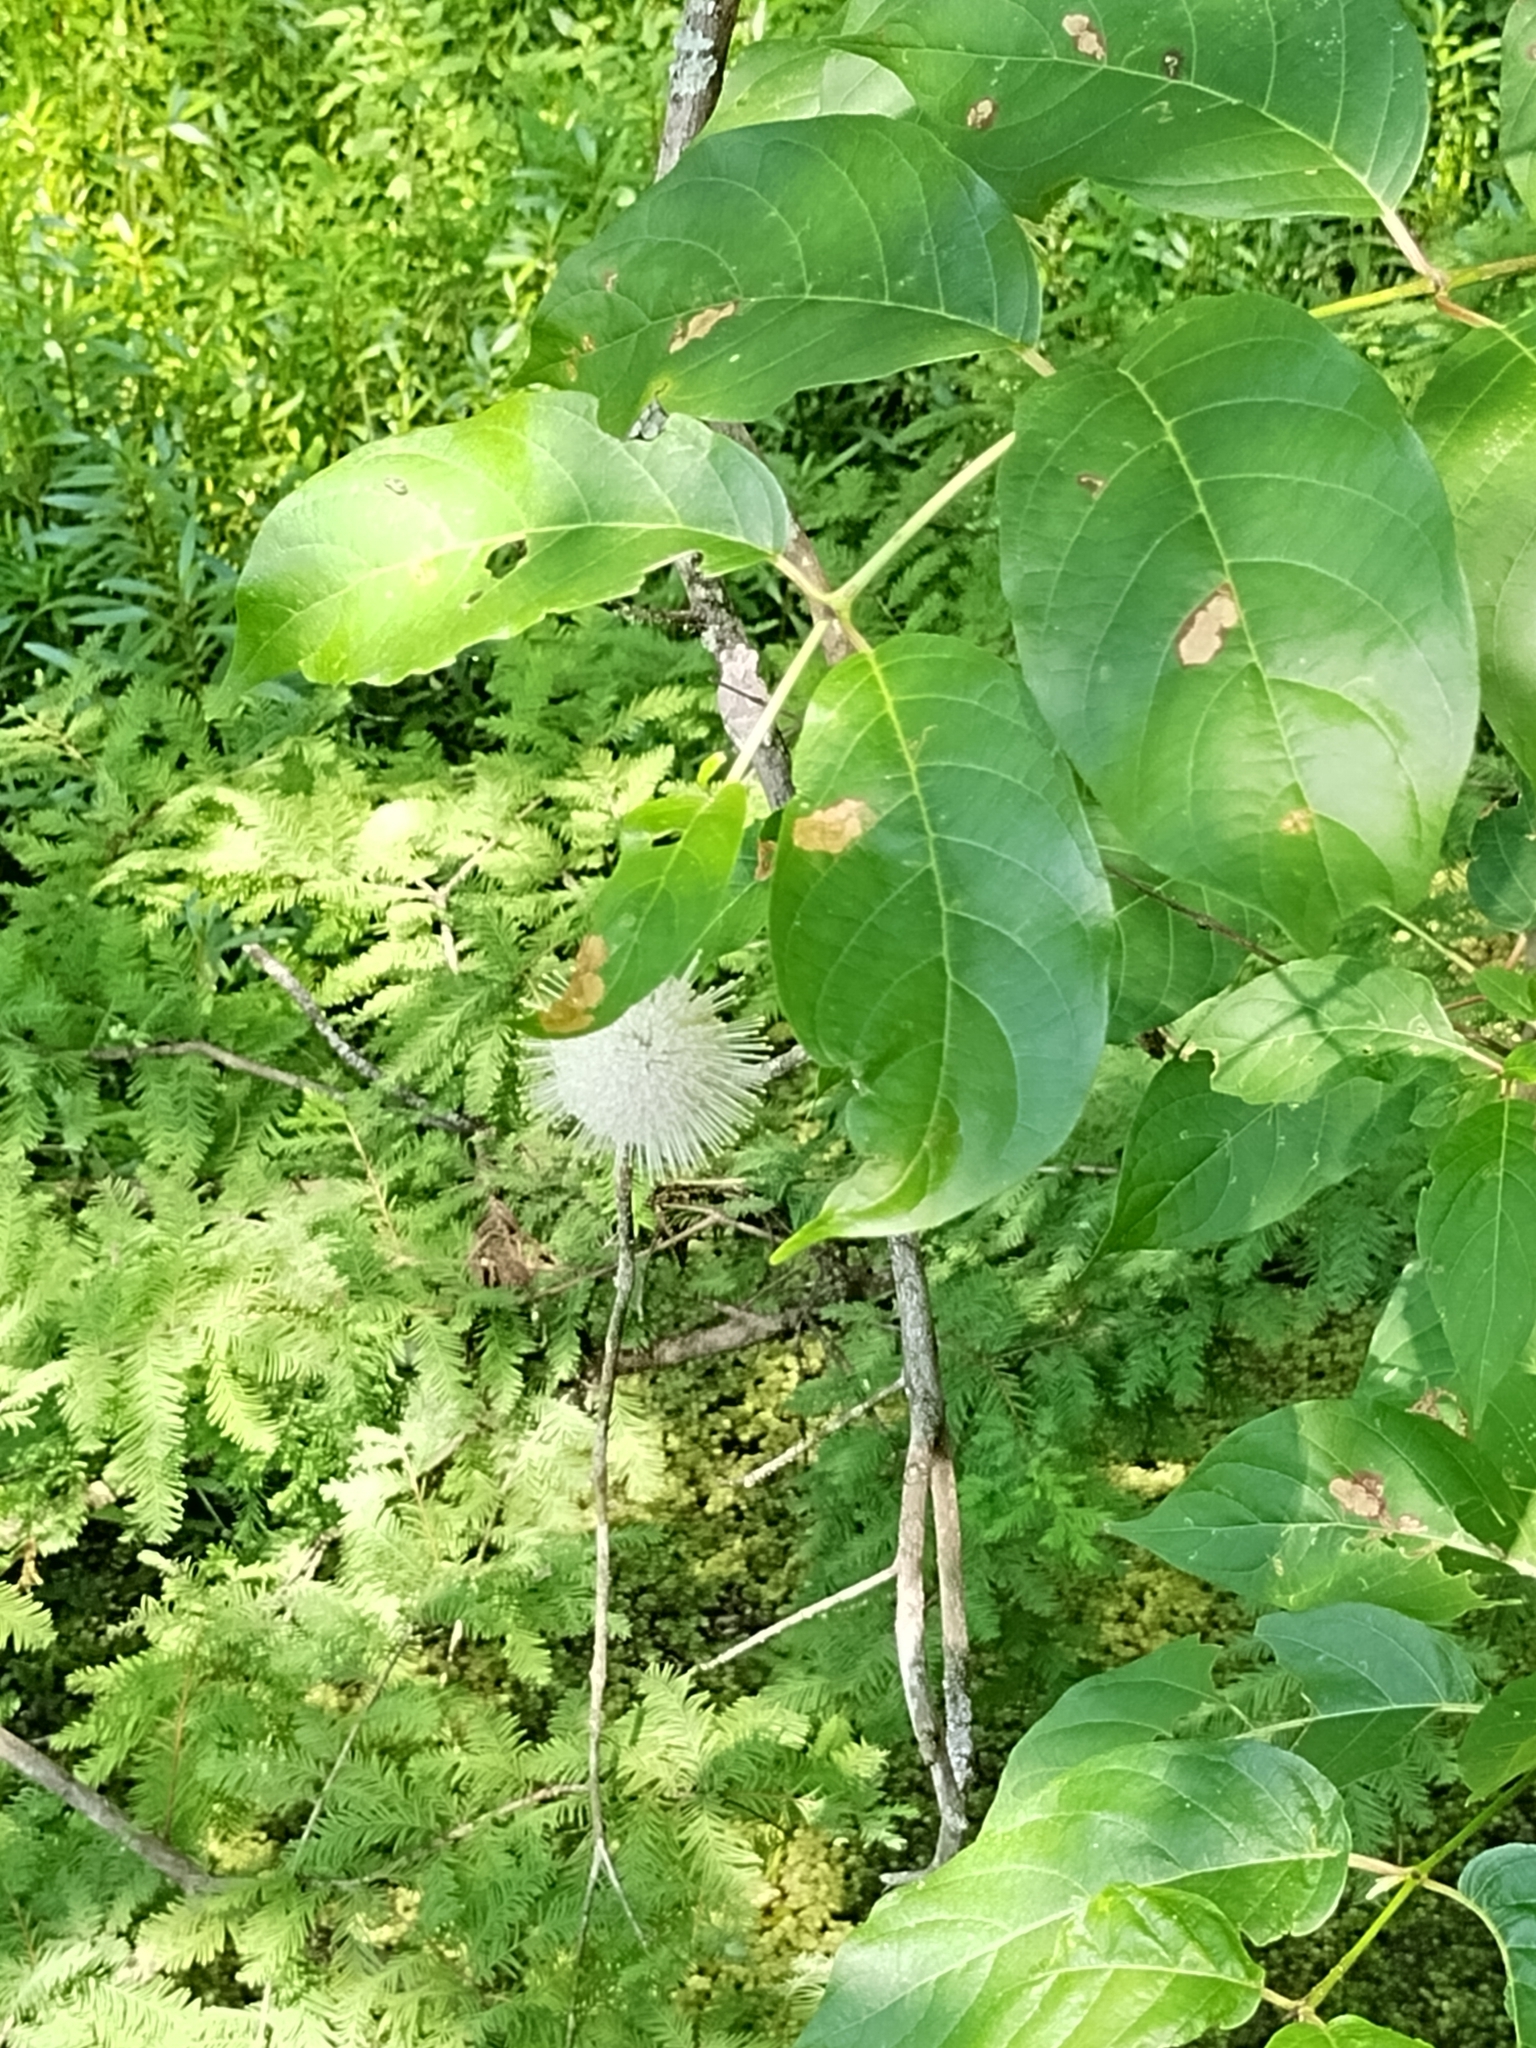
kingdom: Plantae
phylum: Tracheophyta
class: Magnoliopsida
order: Gentianales
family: Rubiaceae
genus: Cephalanthus
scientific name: Cephalanthus occidentalis
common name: Button-willow
